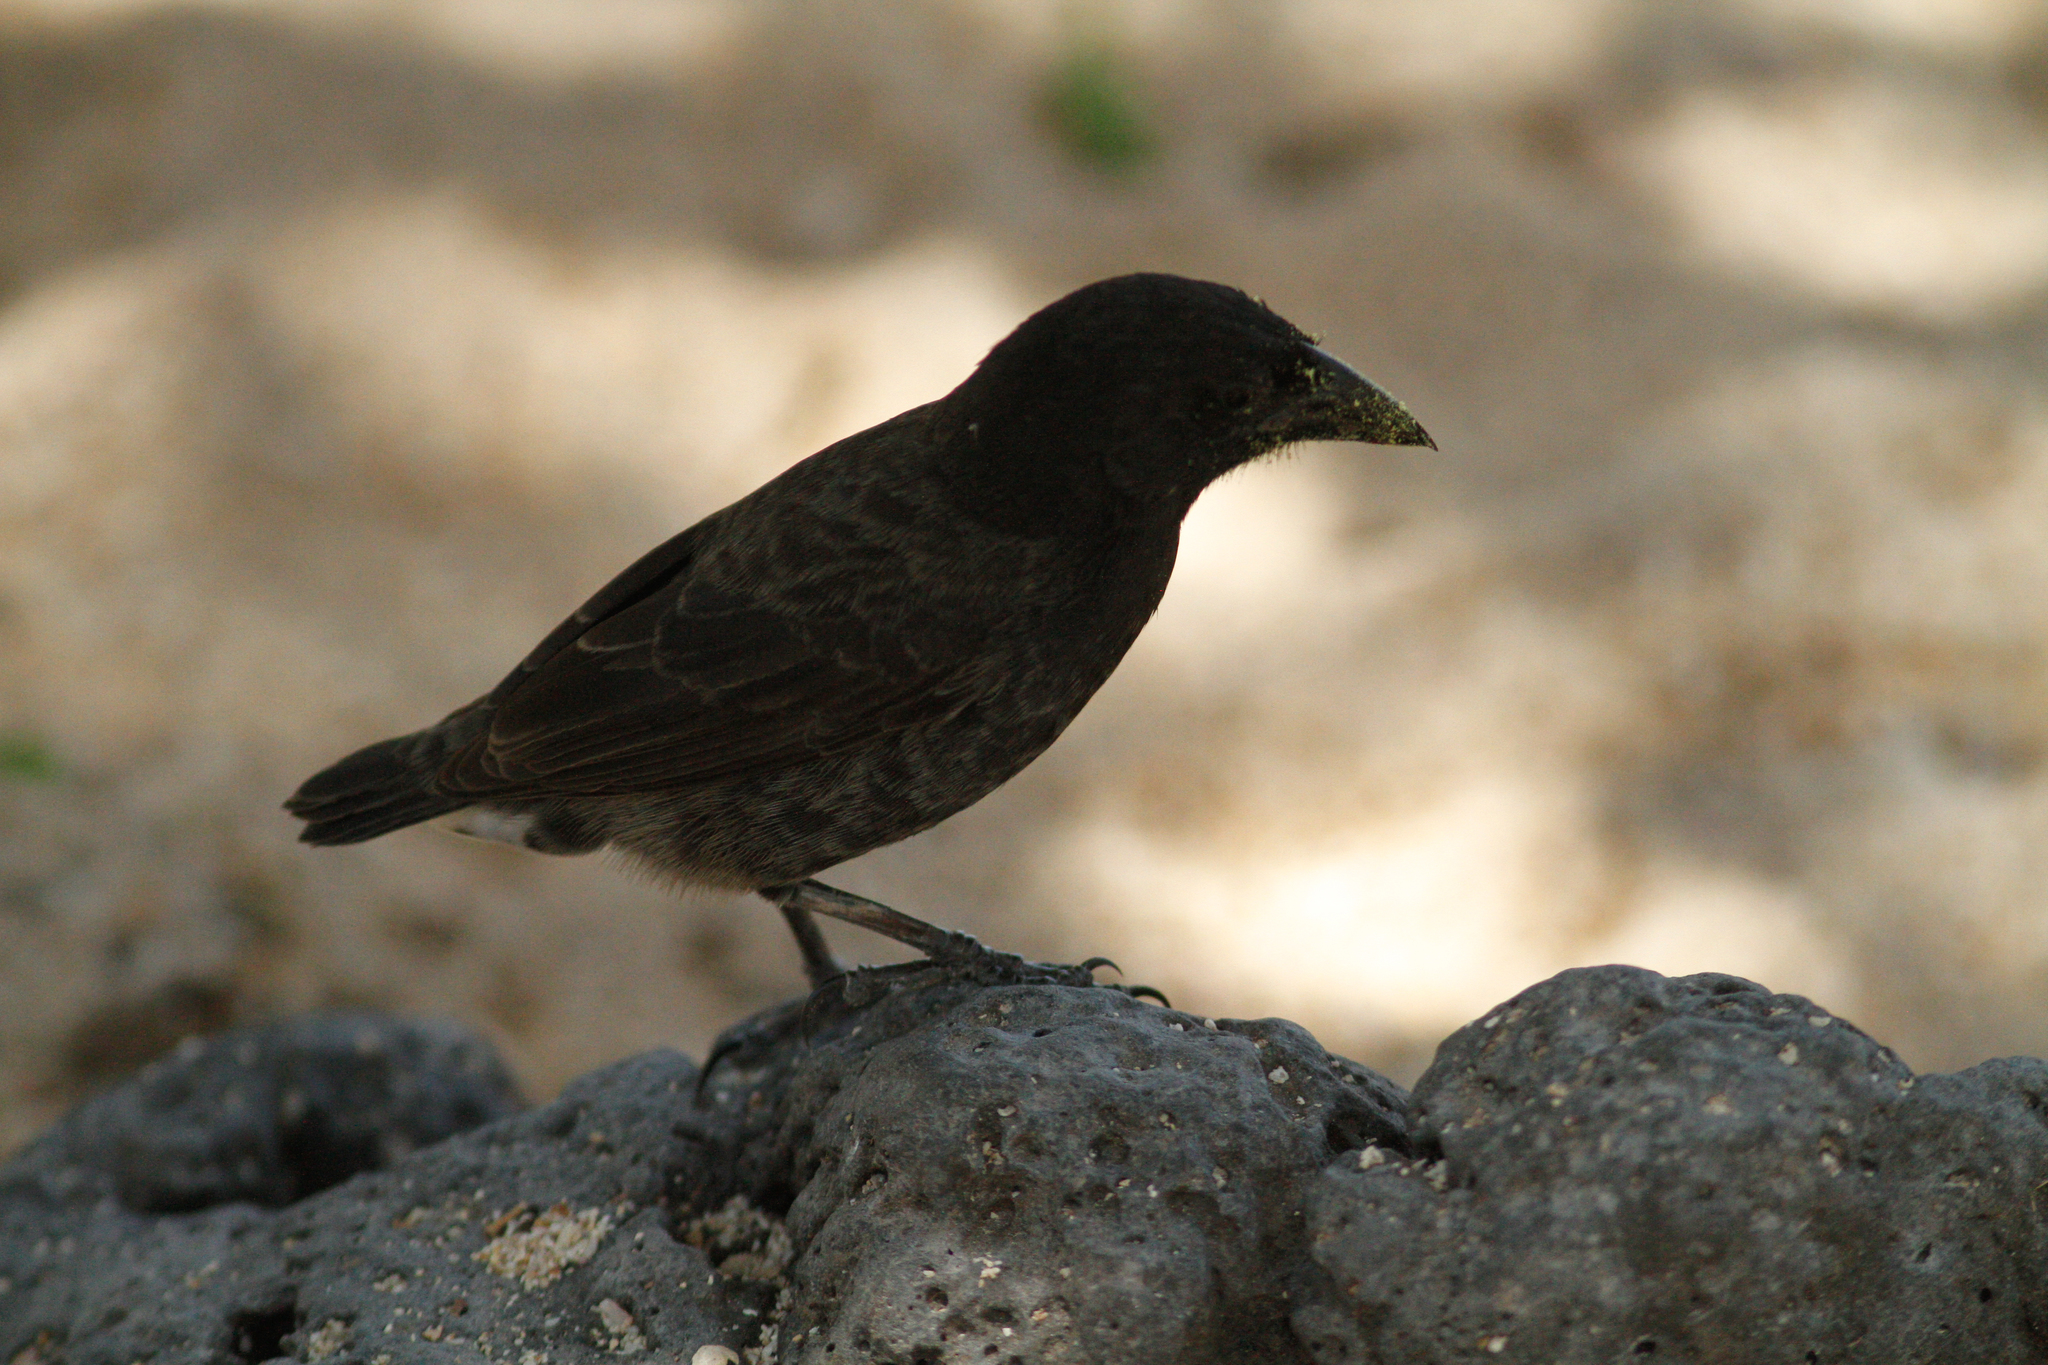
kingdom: Animalia
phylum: Chordata
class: Aves
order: Passeriformes
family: Thraupidae
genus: Geospiza
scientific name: Geospiza scandens
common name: Common cactus-finch
